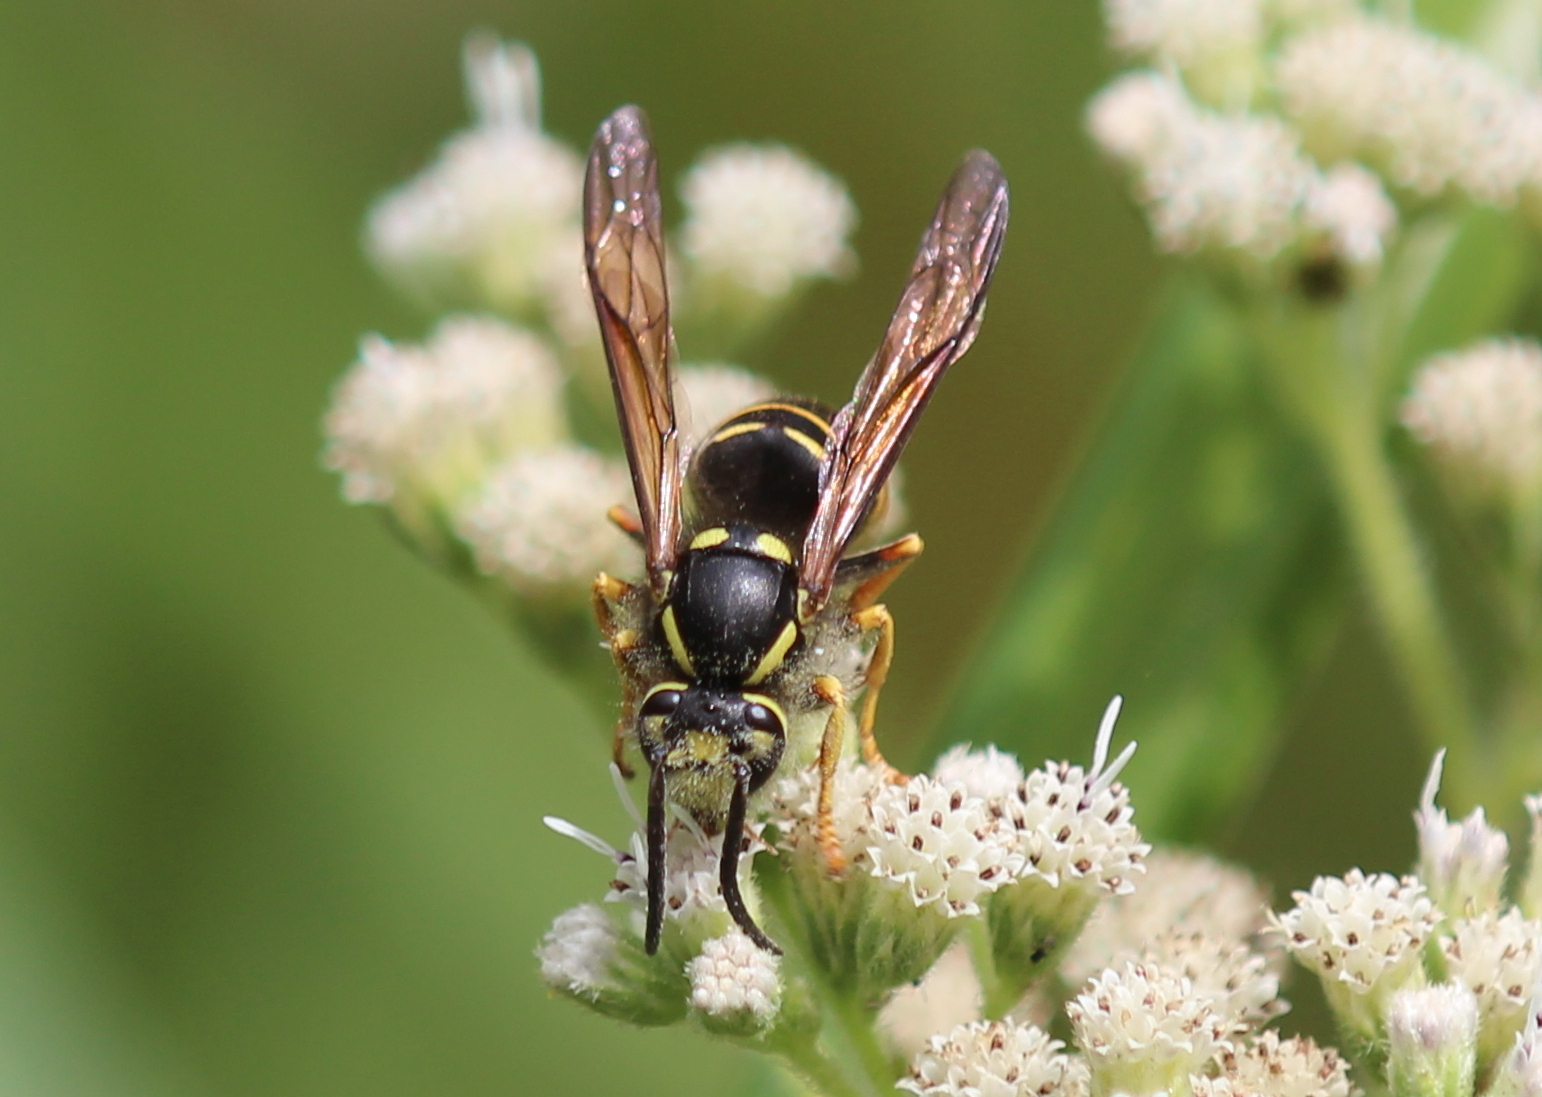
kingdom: Animalia
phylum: Arthropoda
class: Insecta
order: Hymenoptera
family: Vespidae
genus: Vespula
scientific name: Vespula vidua
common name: Widow yellowjacket
